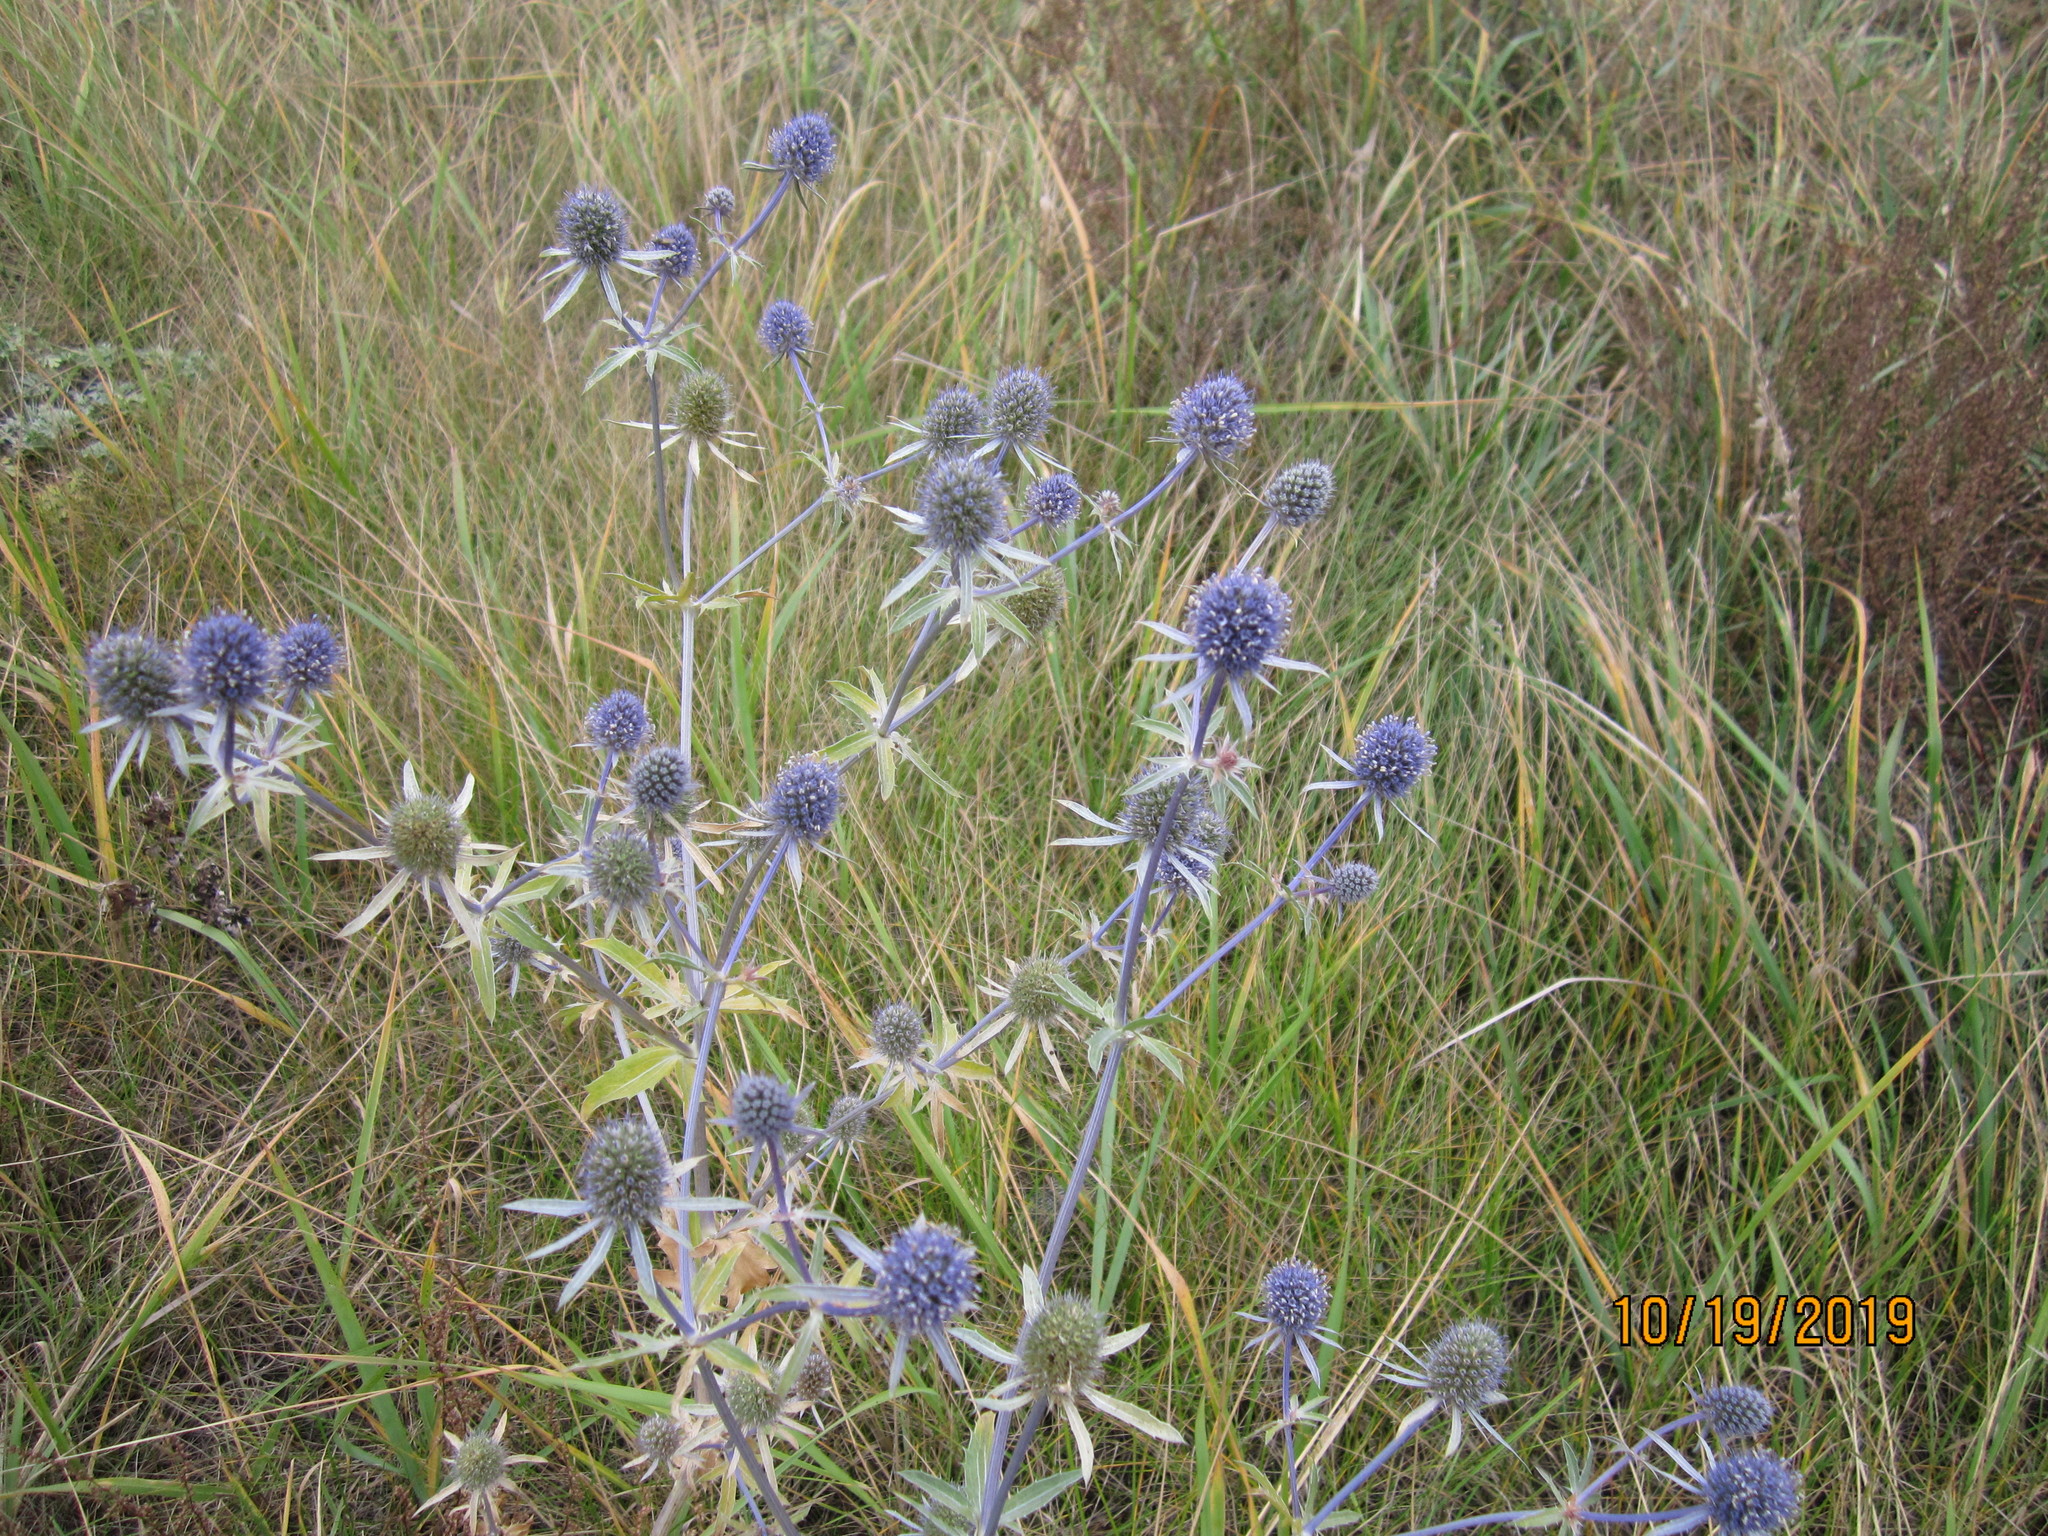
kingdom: Plantae
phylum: Tracheophyta
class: Magnoliopsida
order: Apiales
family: Apiaceae
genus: Eryngium
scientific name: Eryngium planum
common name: Blue eryngo
